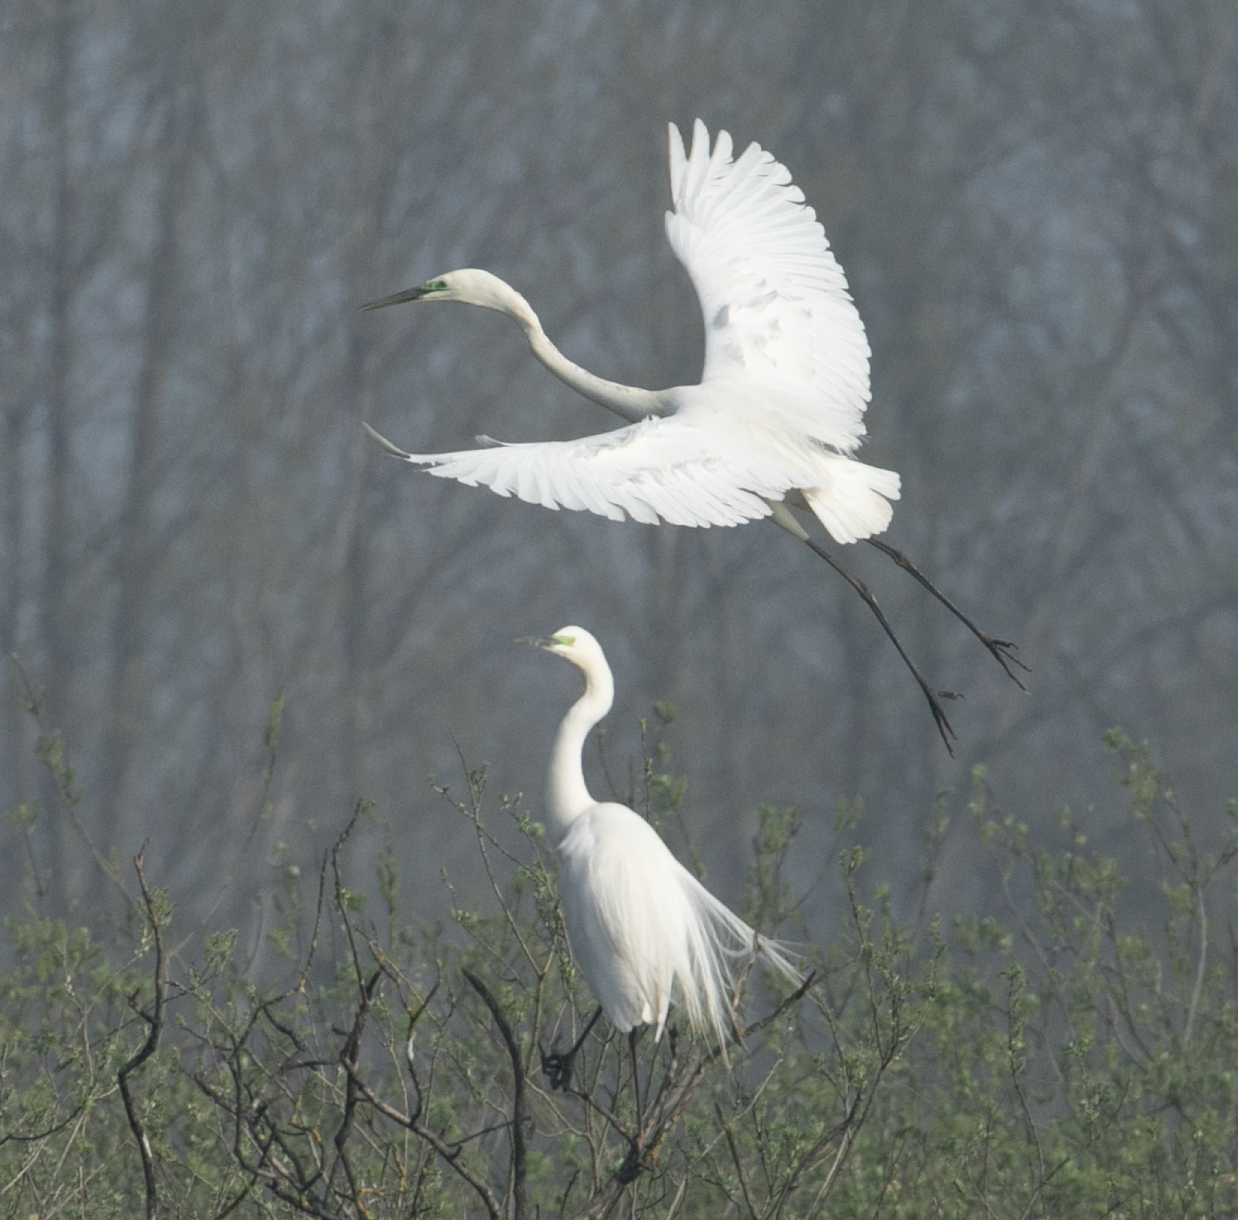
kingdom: Animalia
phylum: Chordata
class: Aves
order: Pelecaniformes
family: Ardeidae
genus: Ardea
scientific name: Ardea alba
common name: Great egret
